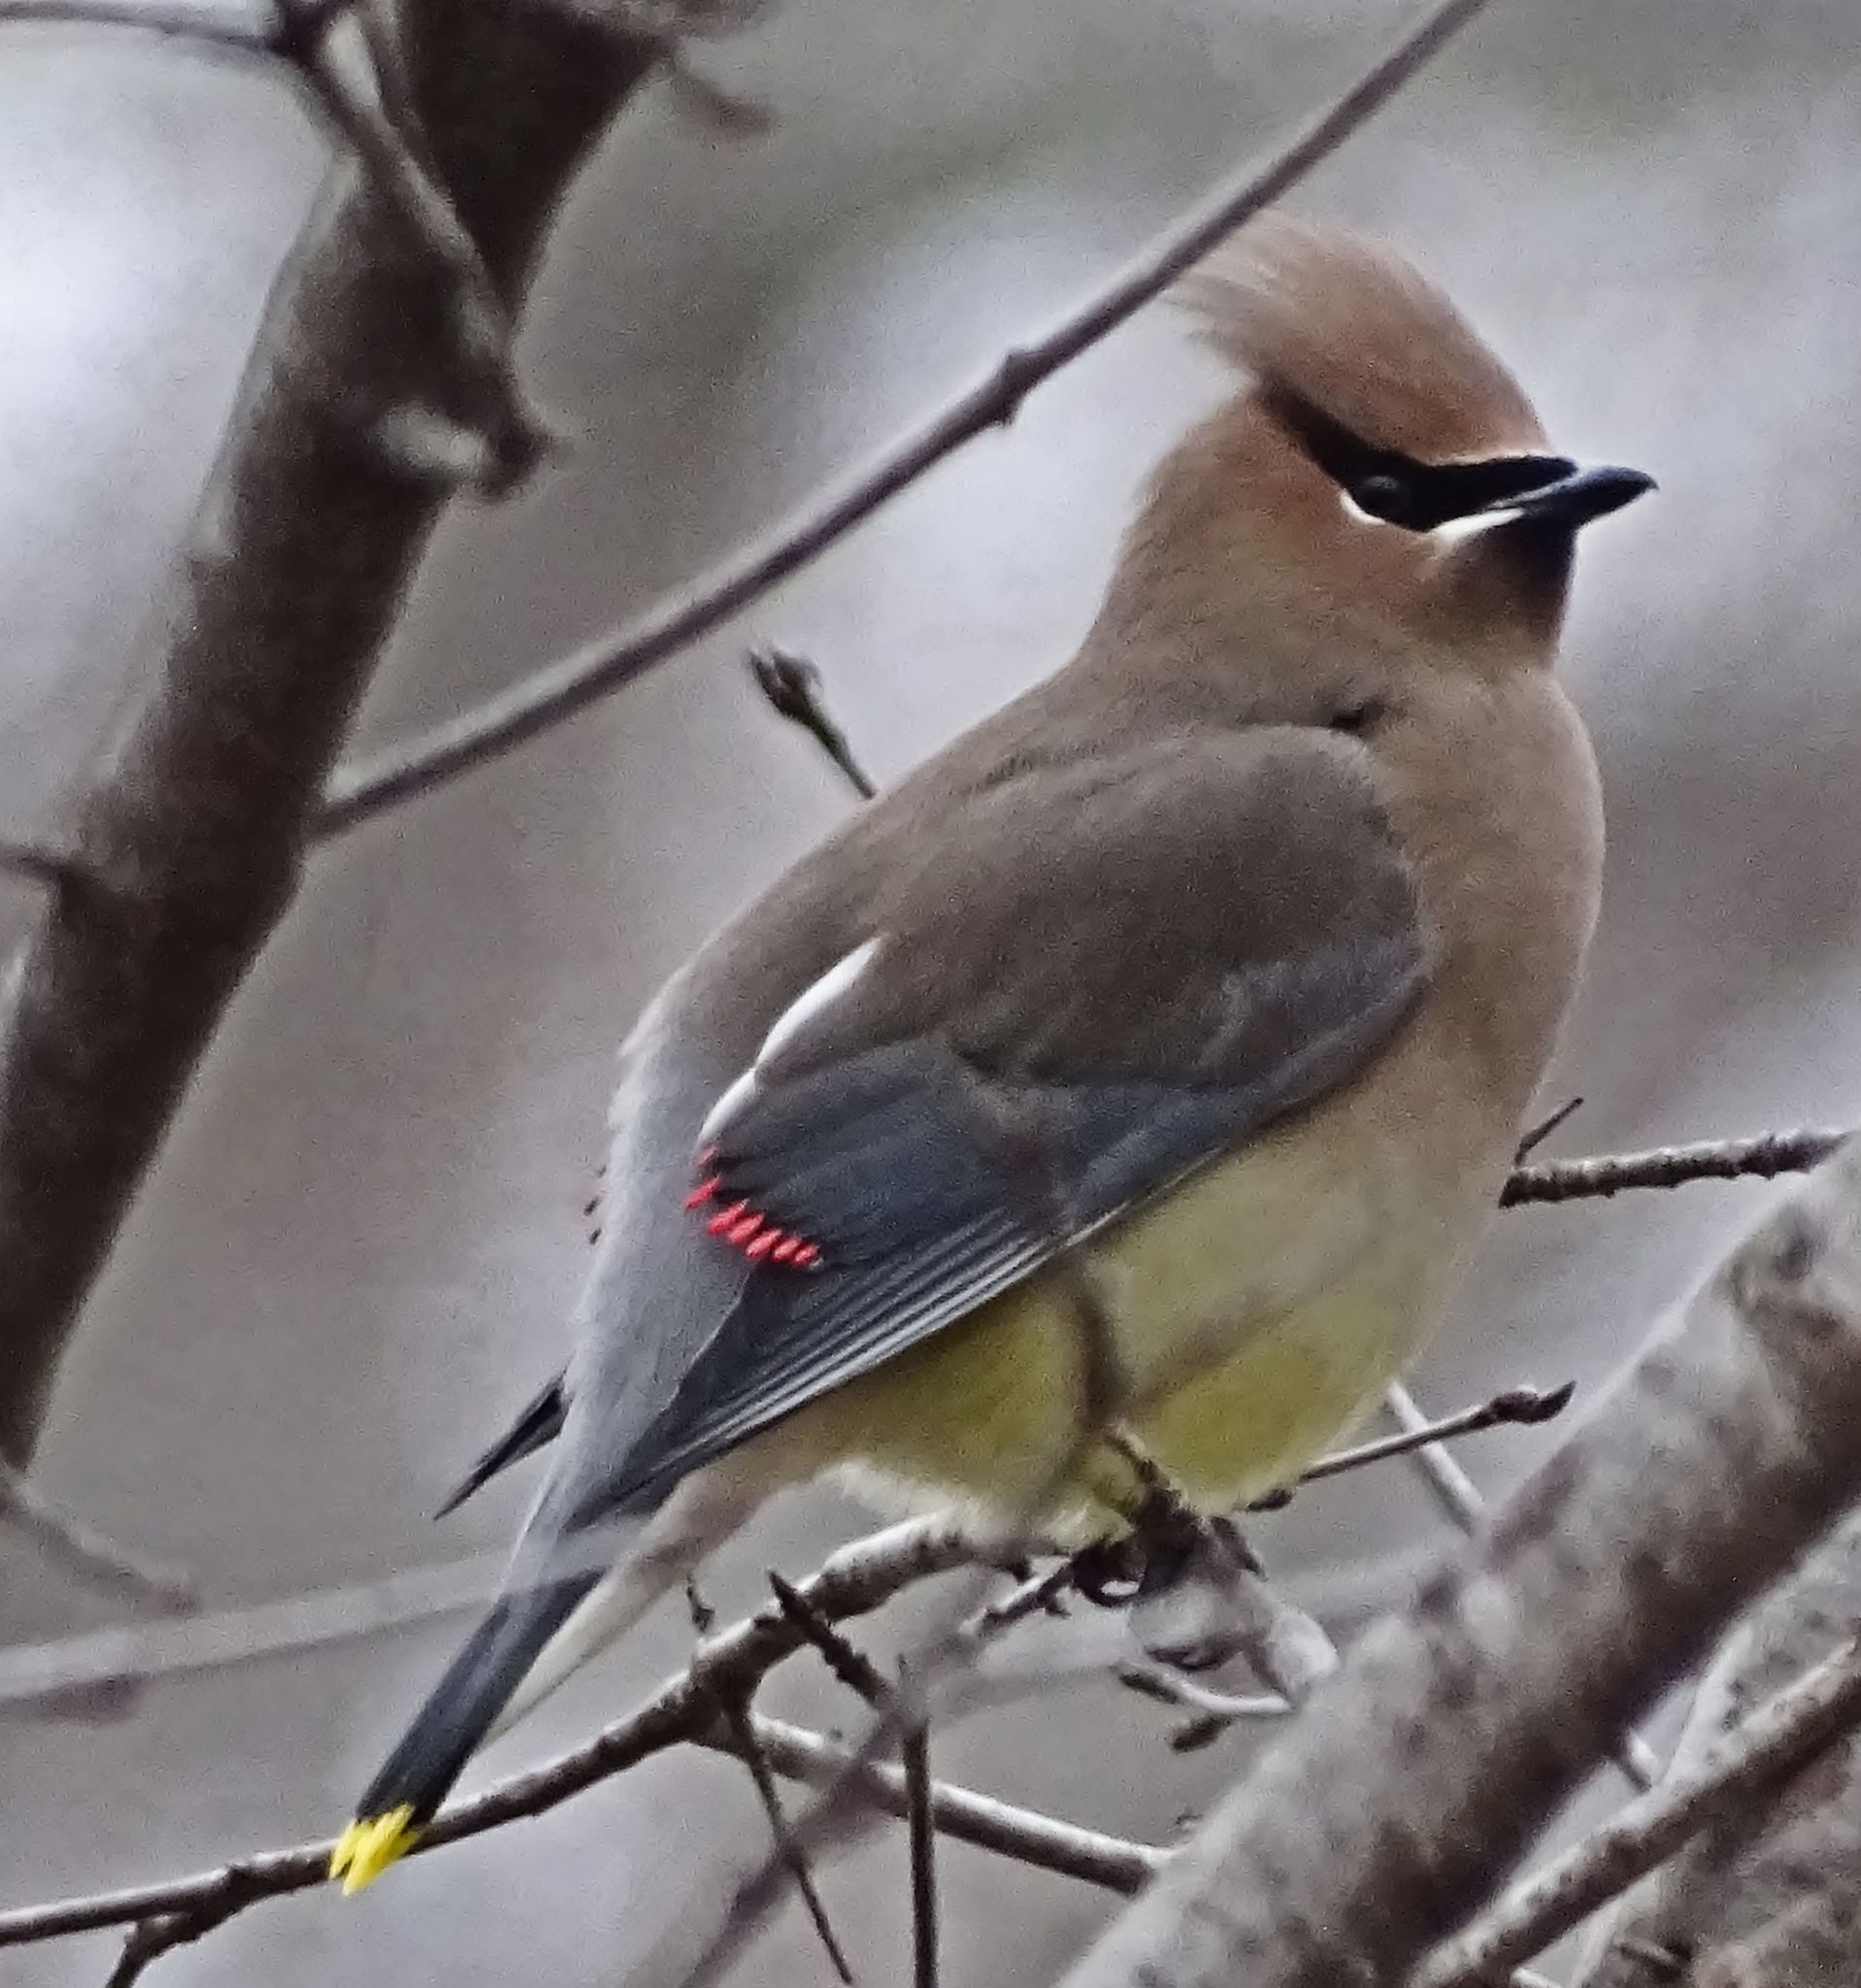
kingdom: Animalia
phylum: Chordata
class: Aves
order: Passeriformes
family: Bombycillidae
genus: Bombycilla
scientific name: Bombycilla cedrorum
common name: Cedar waxwing
